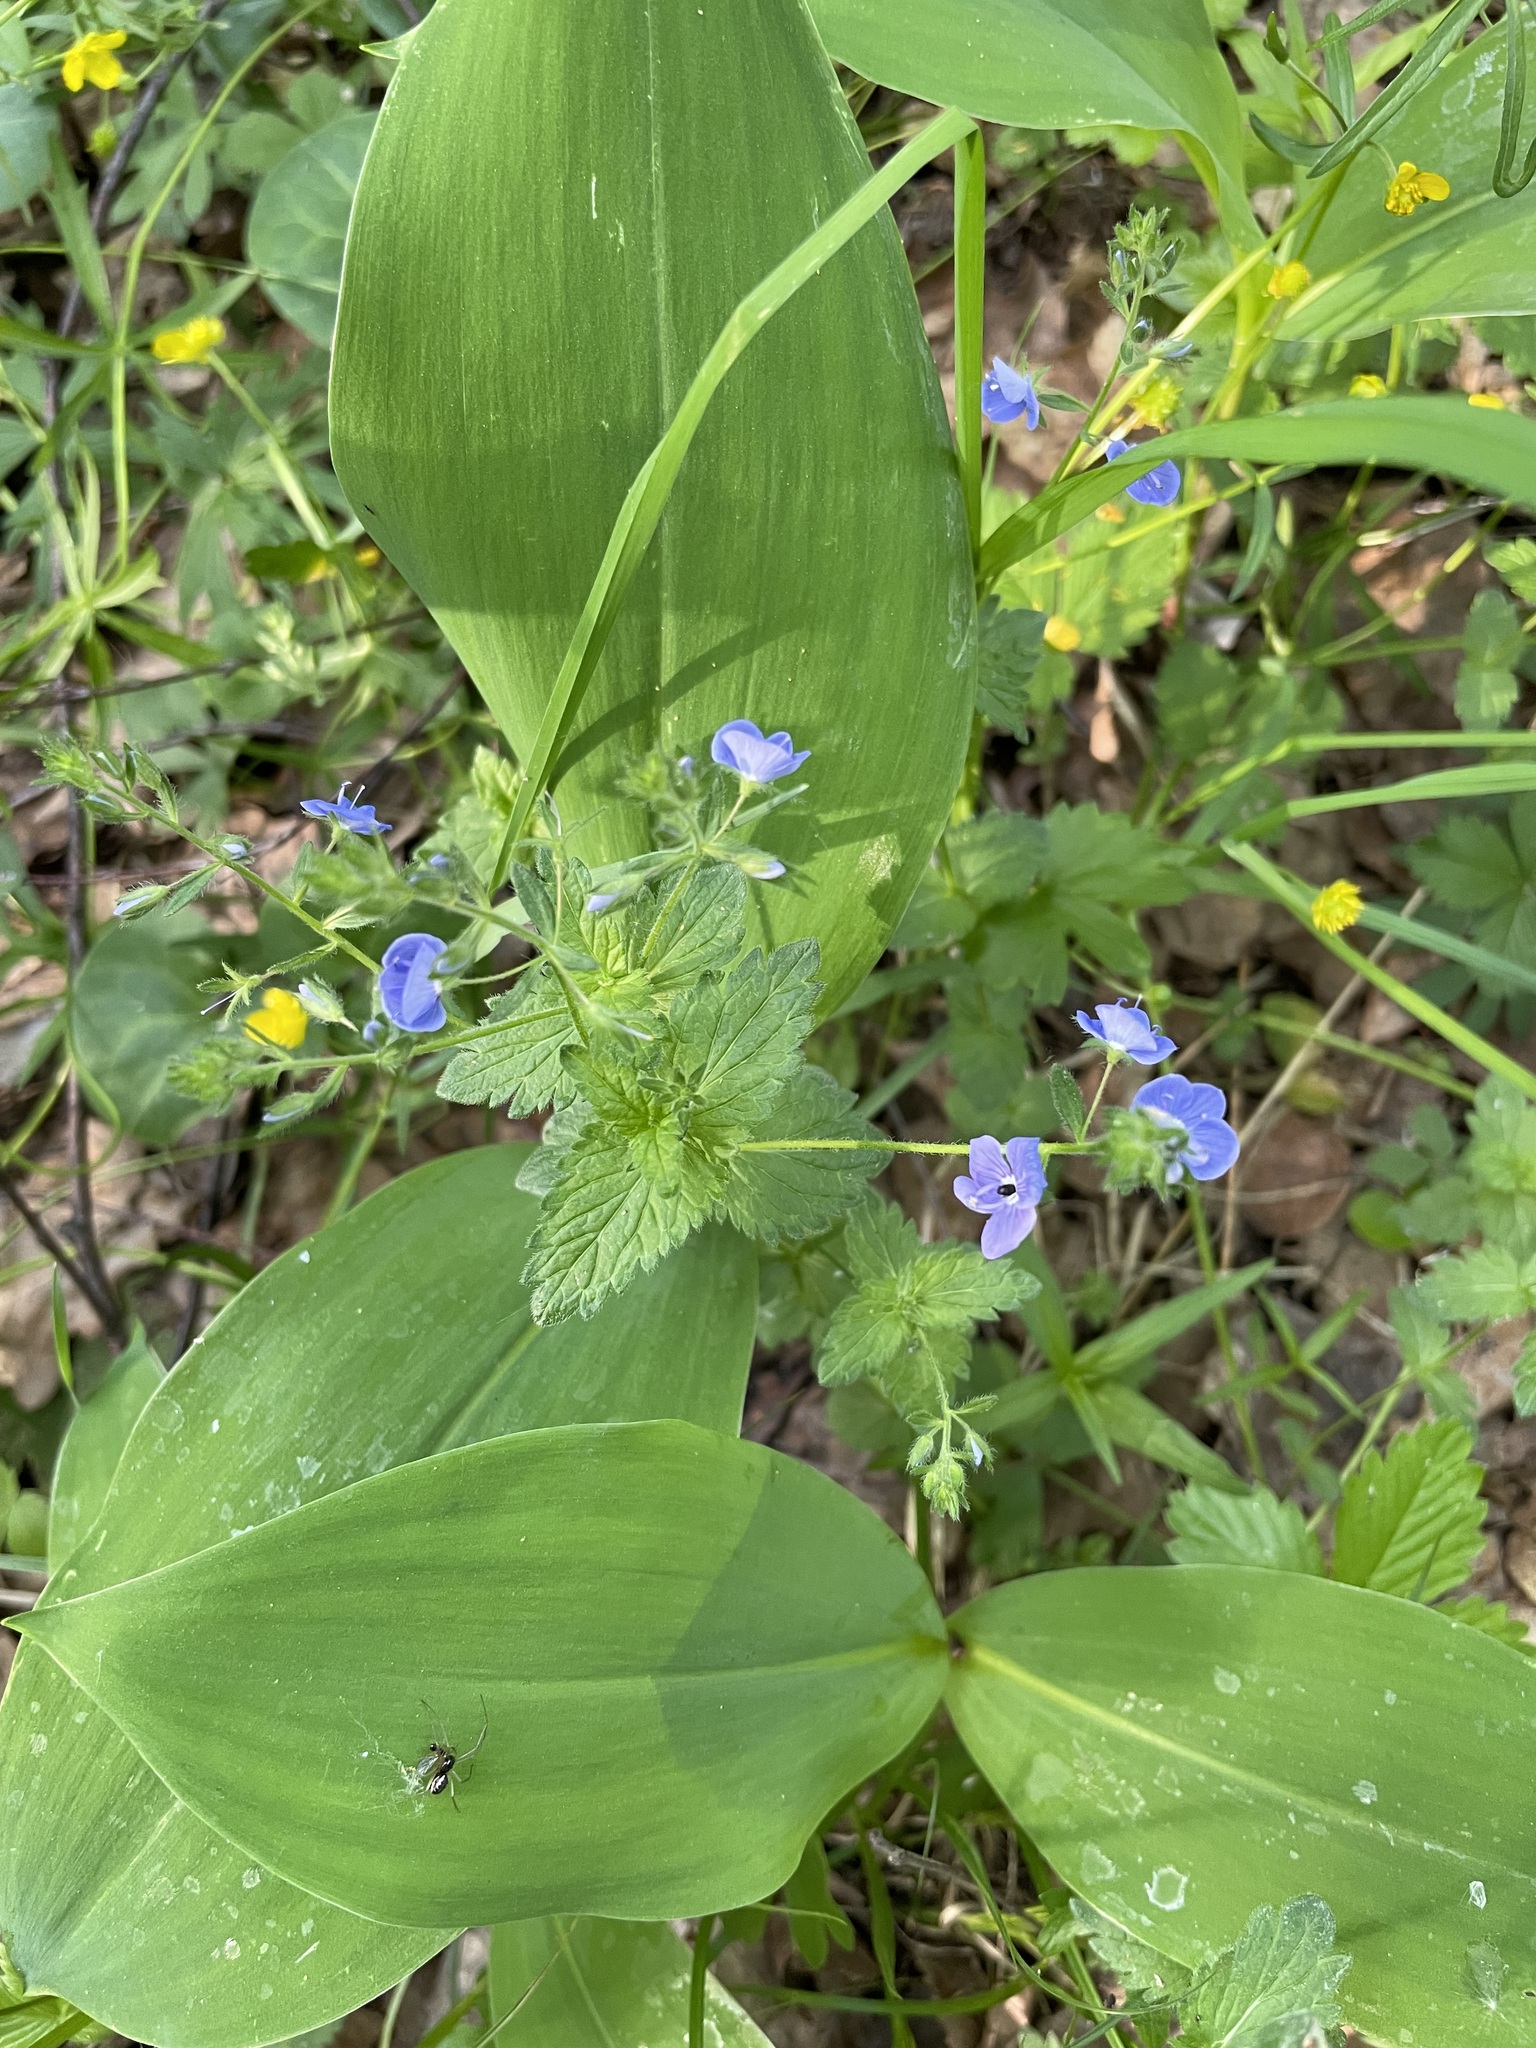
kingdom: Plantae
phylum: Tracheophyta
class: Magnoliopsida
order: Lamiales
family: Plantaginaceae
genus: Veronica
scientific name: Veronica chamaedrys
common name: Germander speedwell
